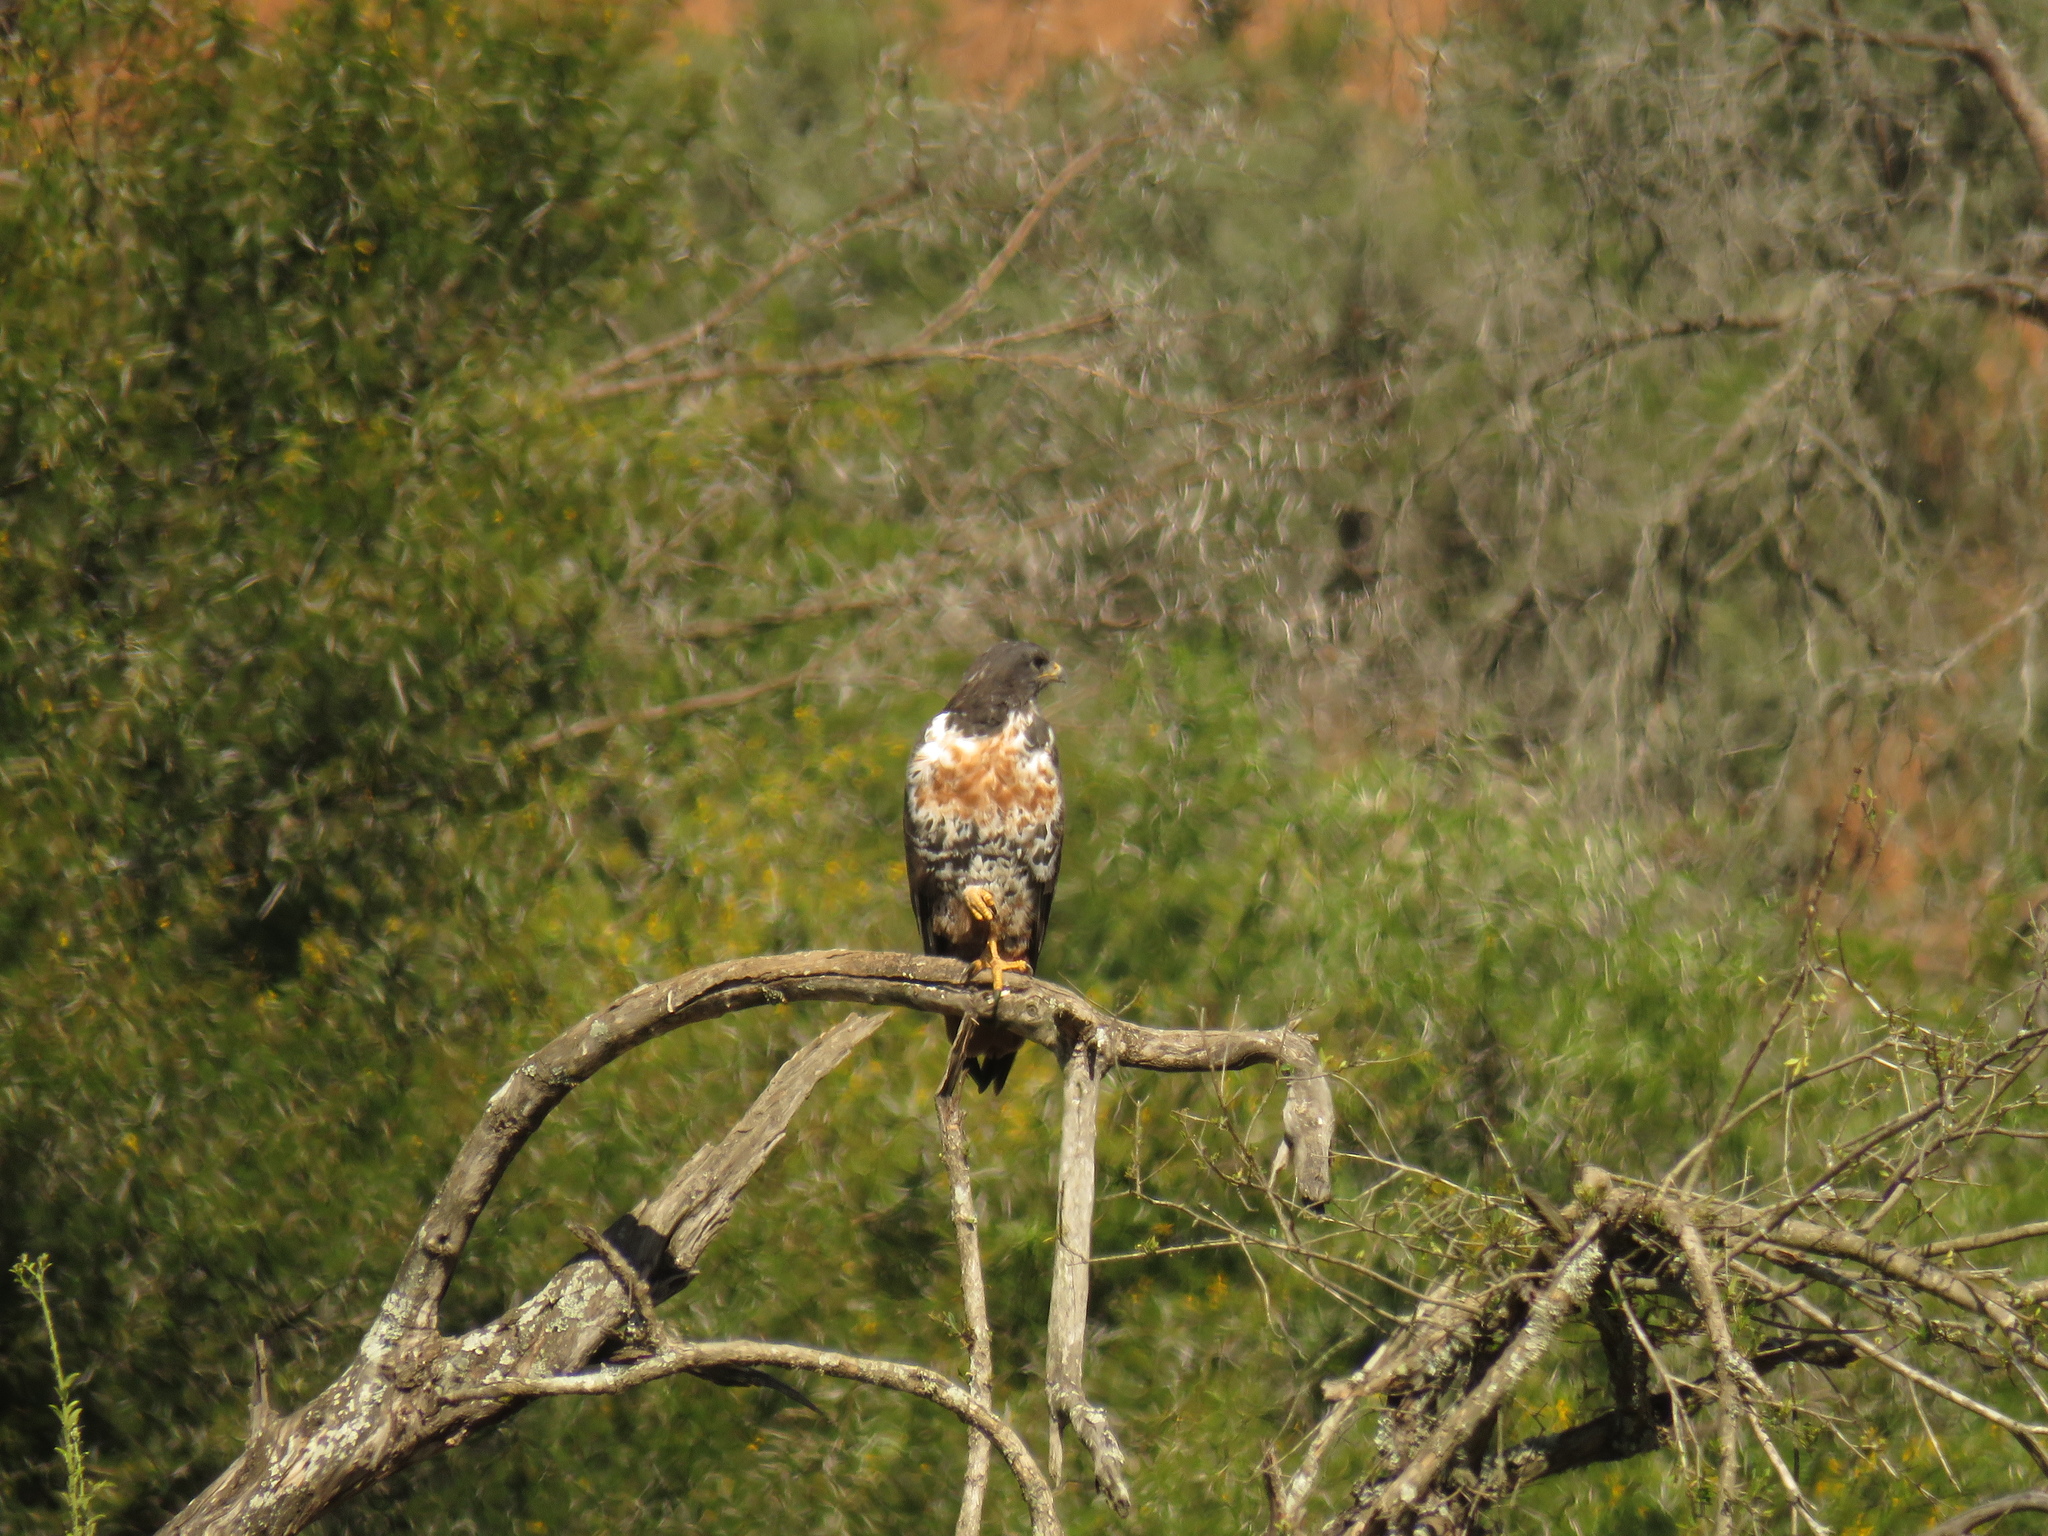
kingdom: Animalia
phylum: Chordata
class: Aves
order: Accipitriformes
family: Accipitridae
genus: Buteo
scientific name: Buteo rufofuscus
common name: Jackal buzzard
